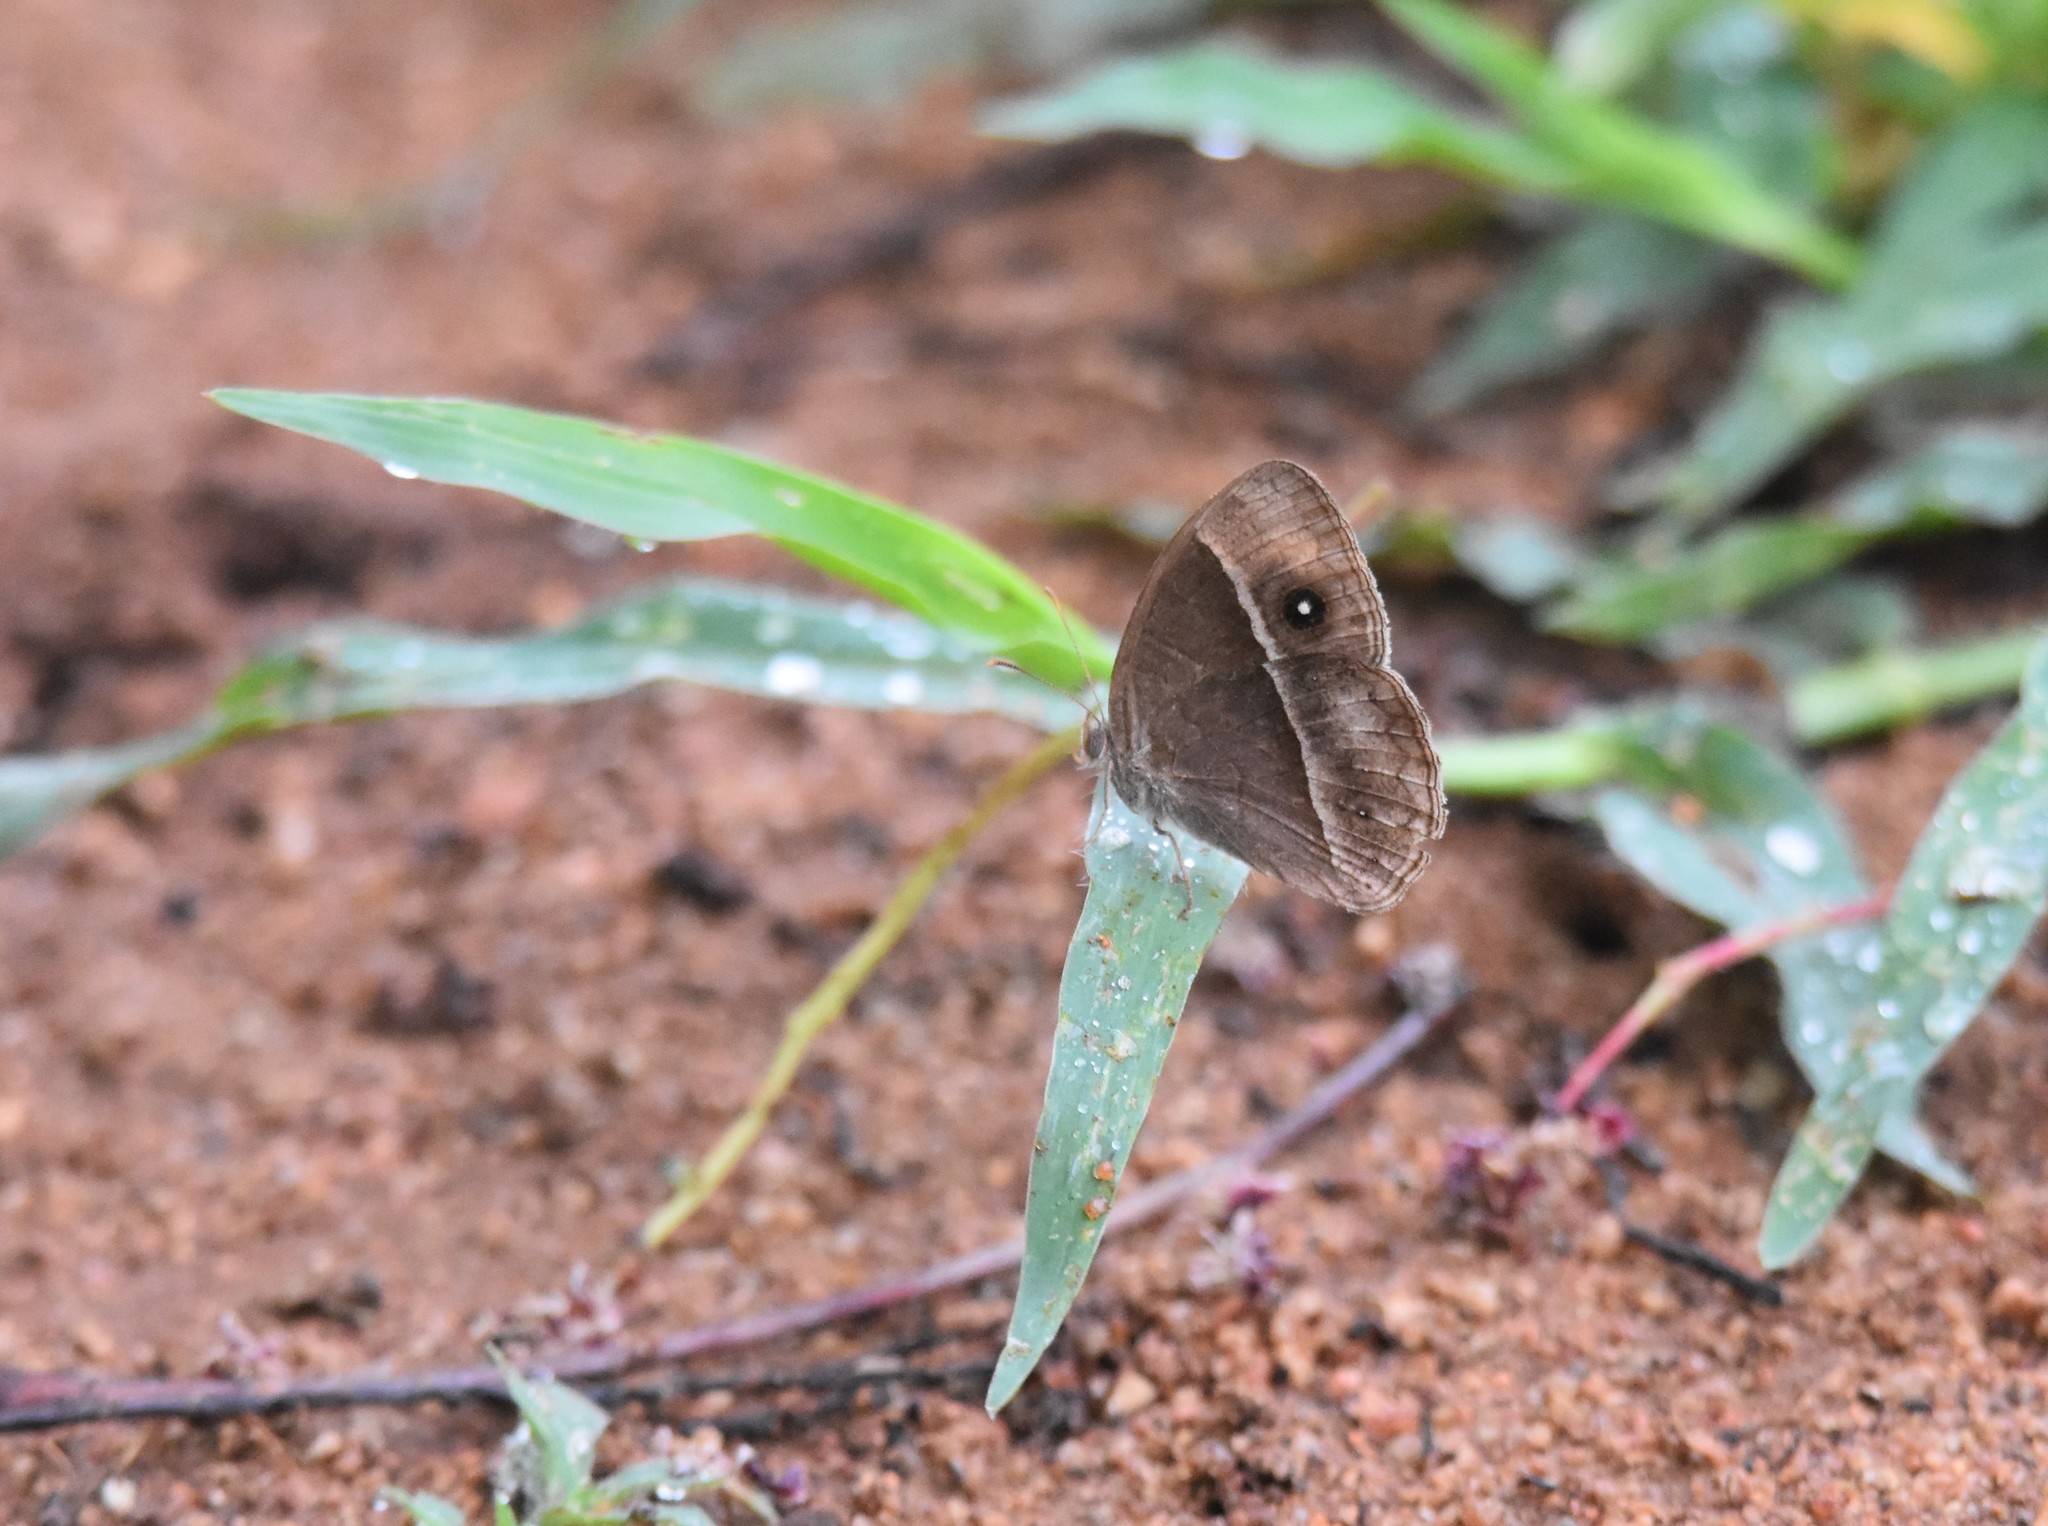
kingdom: Animalia
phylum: Arthropoda
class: Insecta
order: Lepidoptera
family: Nymphalidae
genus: Mycalesis
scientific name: Mycalesis rhacotis
